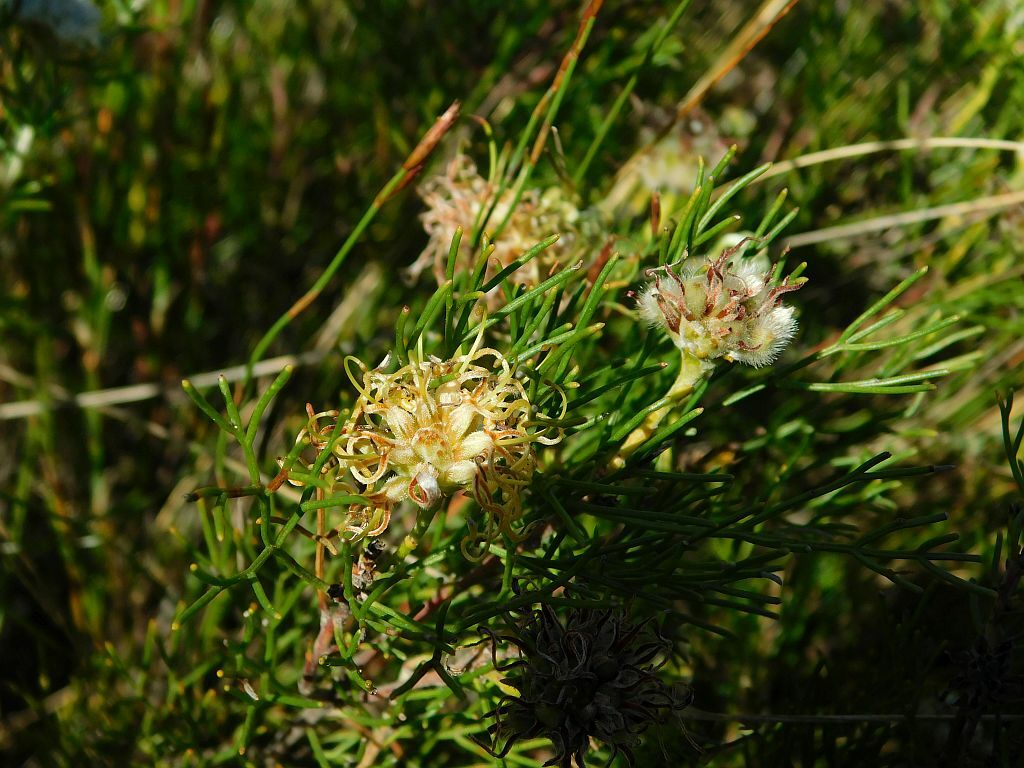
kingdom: Plantae
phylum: Tracheophyta
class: Magnoliopsida
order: Proteales
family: Proteaceae
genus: Serruria
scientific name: Serruria
